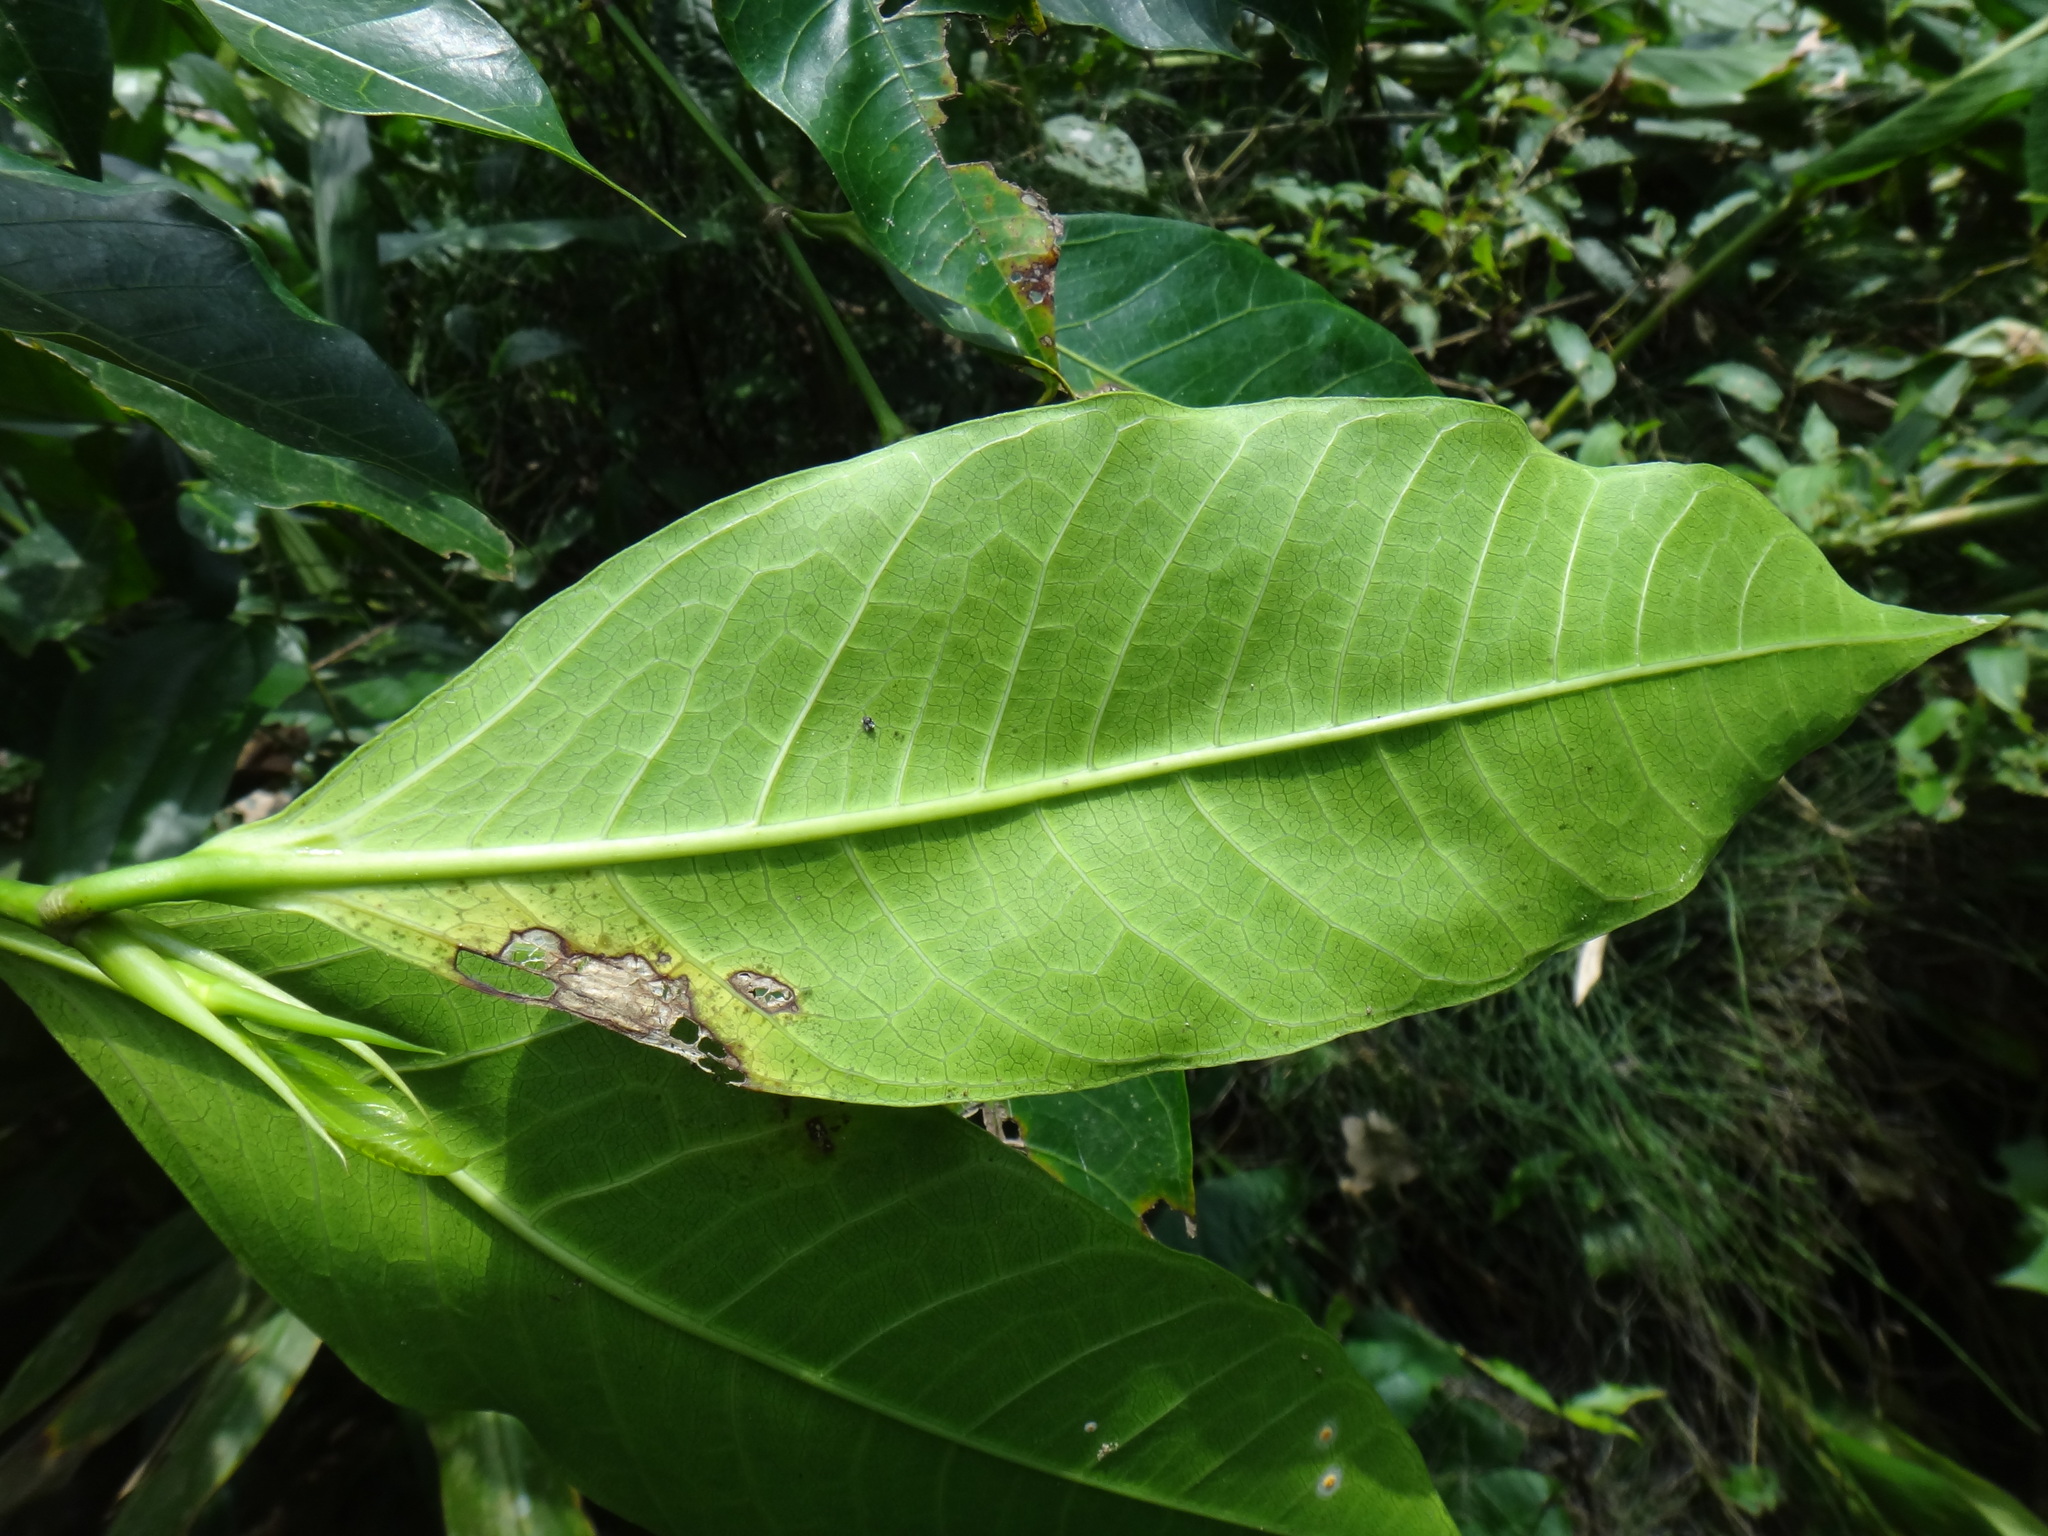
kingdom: Plantae
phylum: Tracheophyta
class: Magnoliopsida
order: Rosales
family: Moraceae
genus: Ficus
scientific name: Ficus virgata
